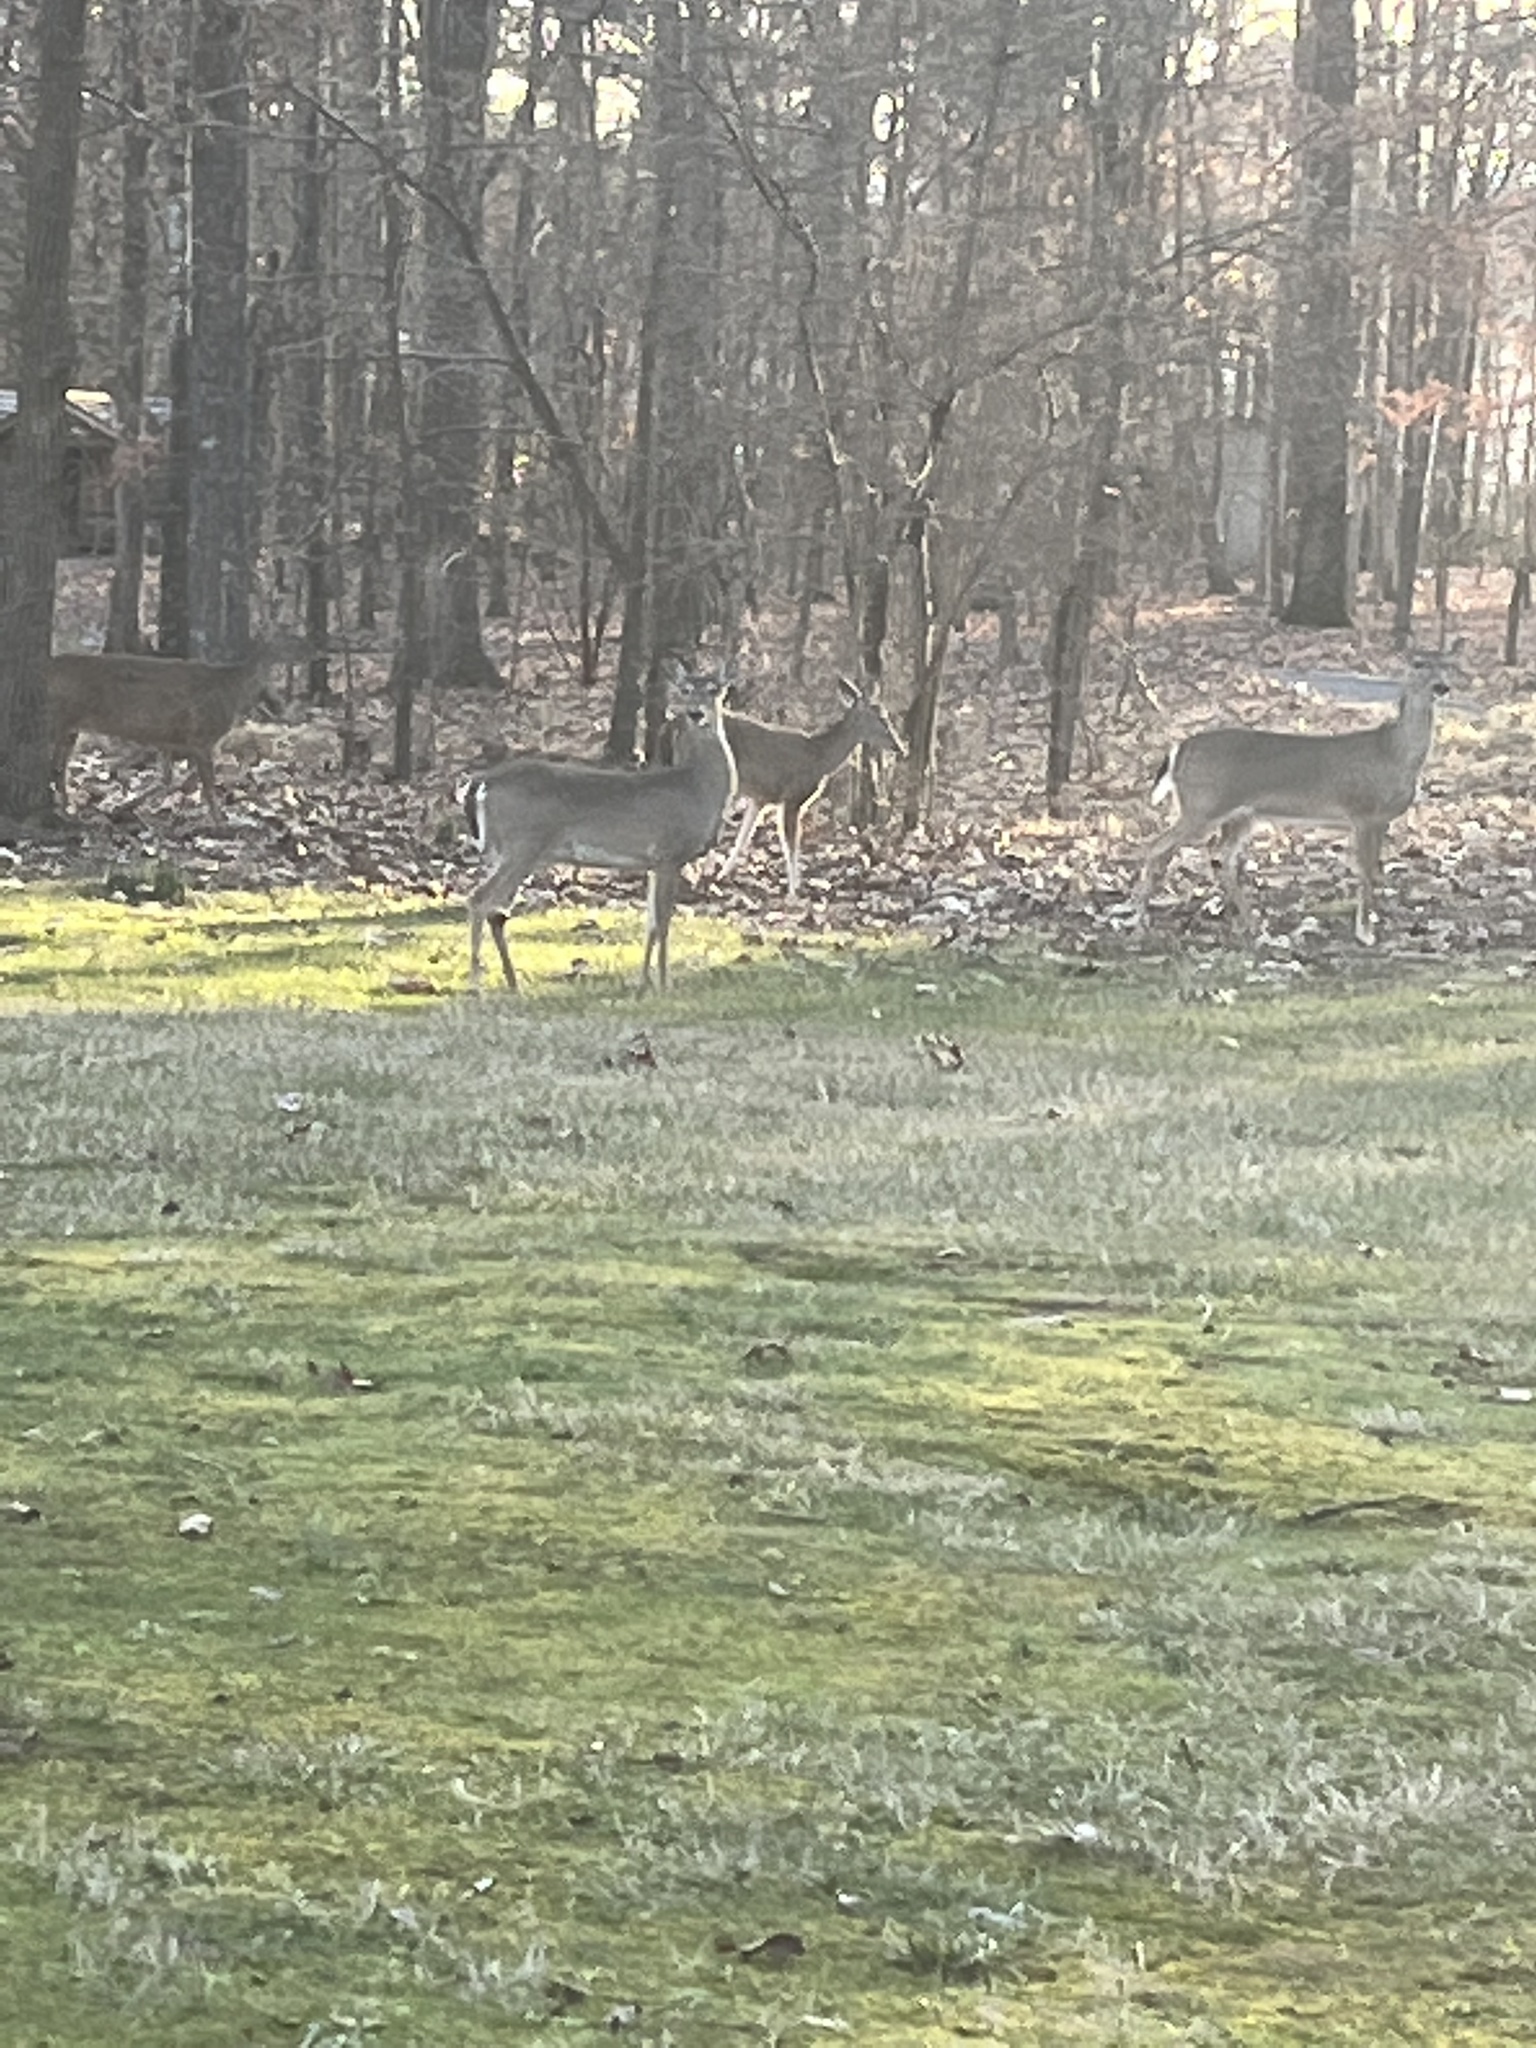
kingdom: Animalia
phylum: Chordata
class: Mammalia
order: Artiodactyla
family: Cervidae
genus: Odocoileus
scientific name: Odocoileus virginianus
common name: White-tailed deer
